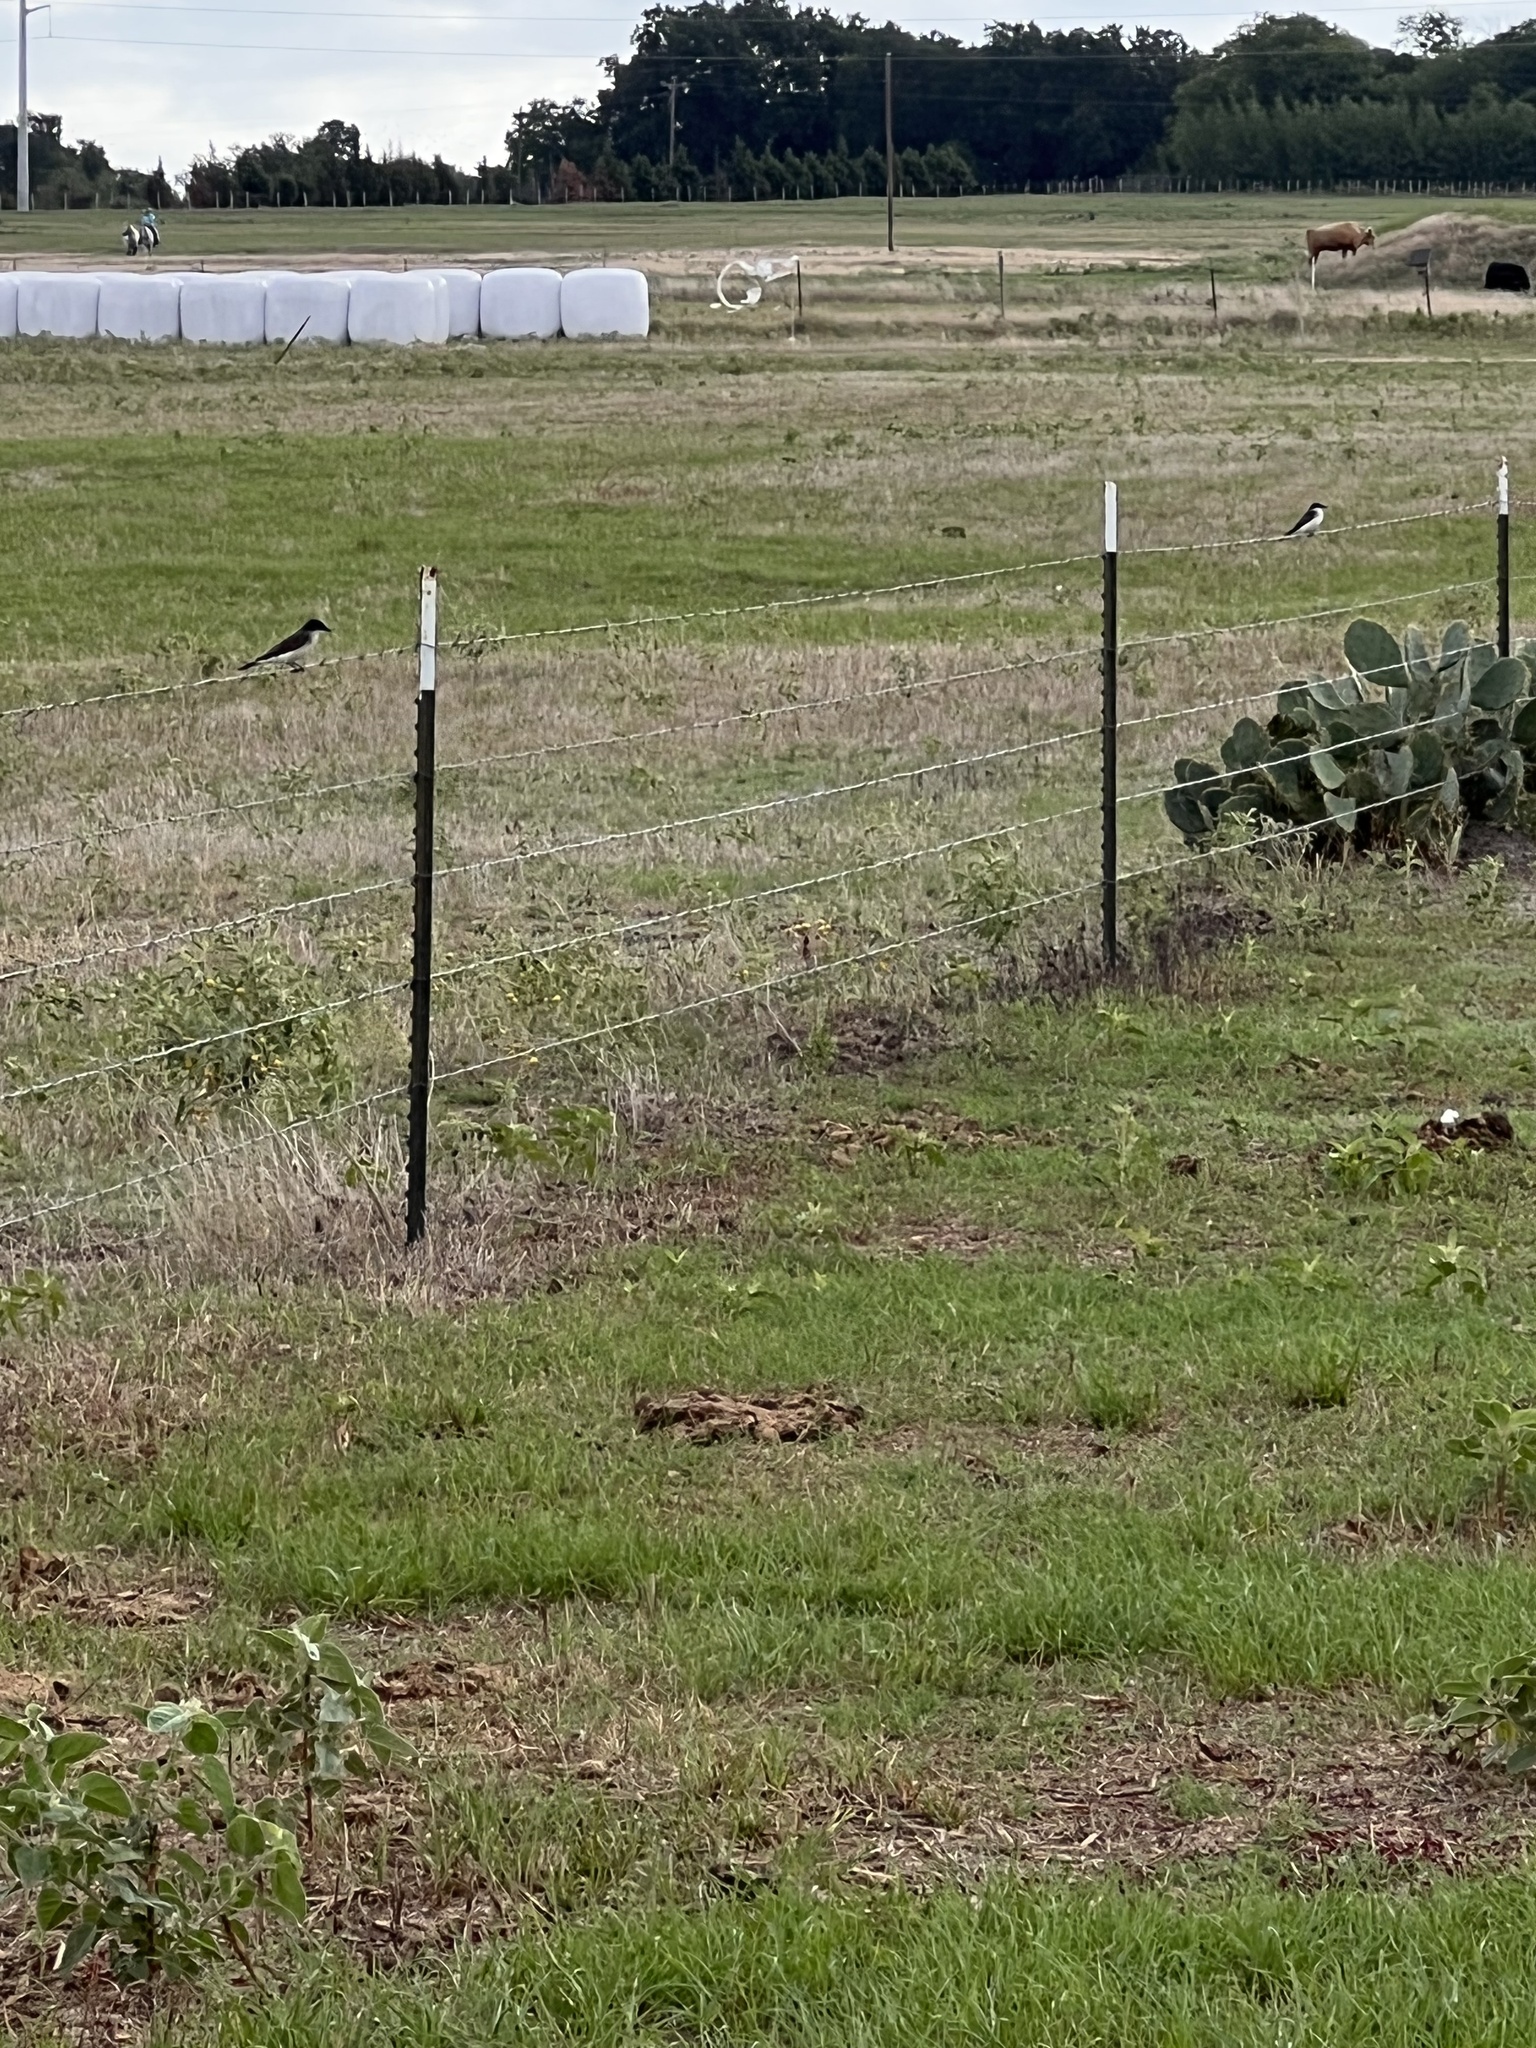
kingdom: Animalia
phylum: Chordata
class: Aves
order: Passeriformes
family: Tyrannidae
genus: Tyrannus
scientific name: Tyrannus tyrannus
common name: Eastern kingbird
